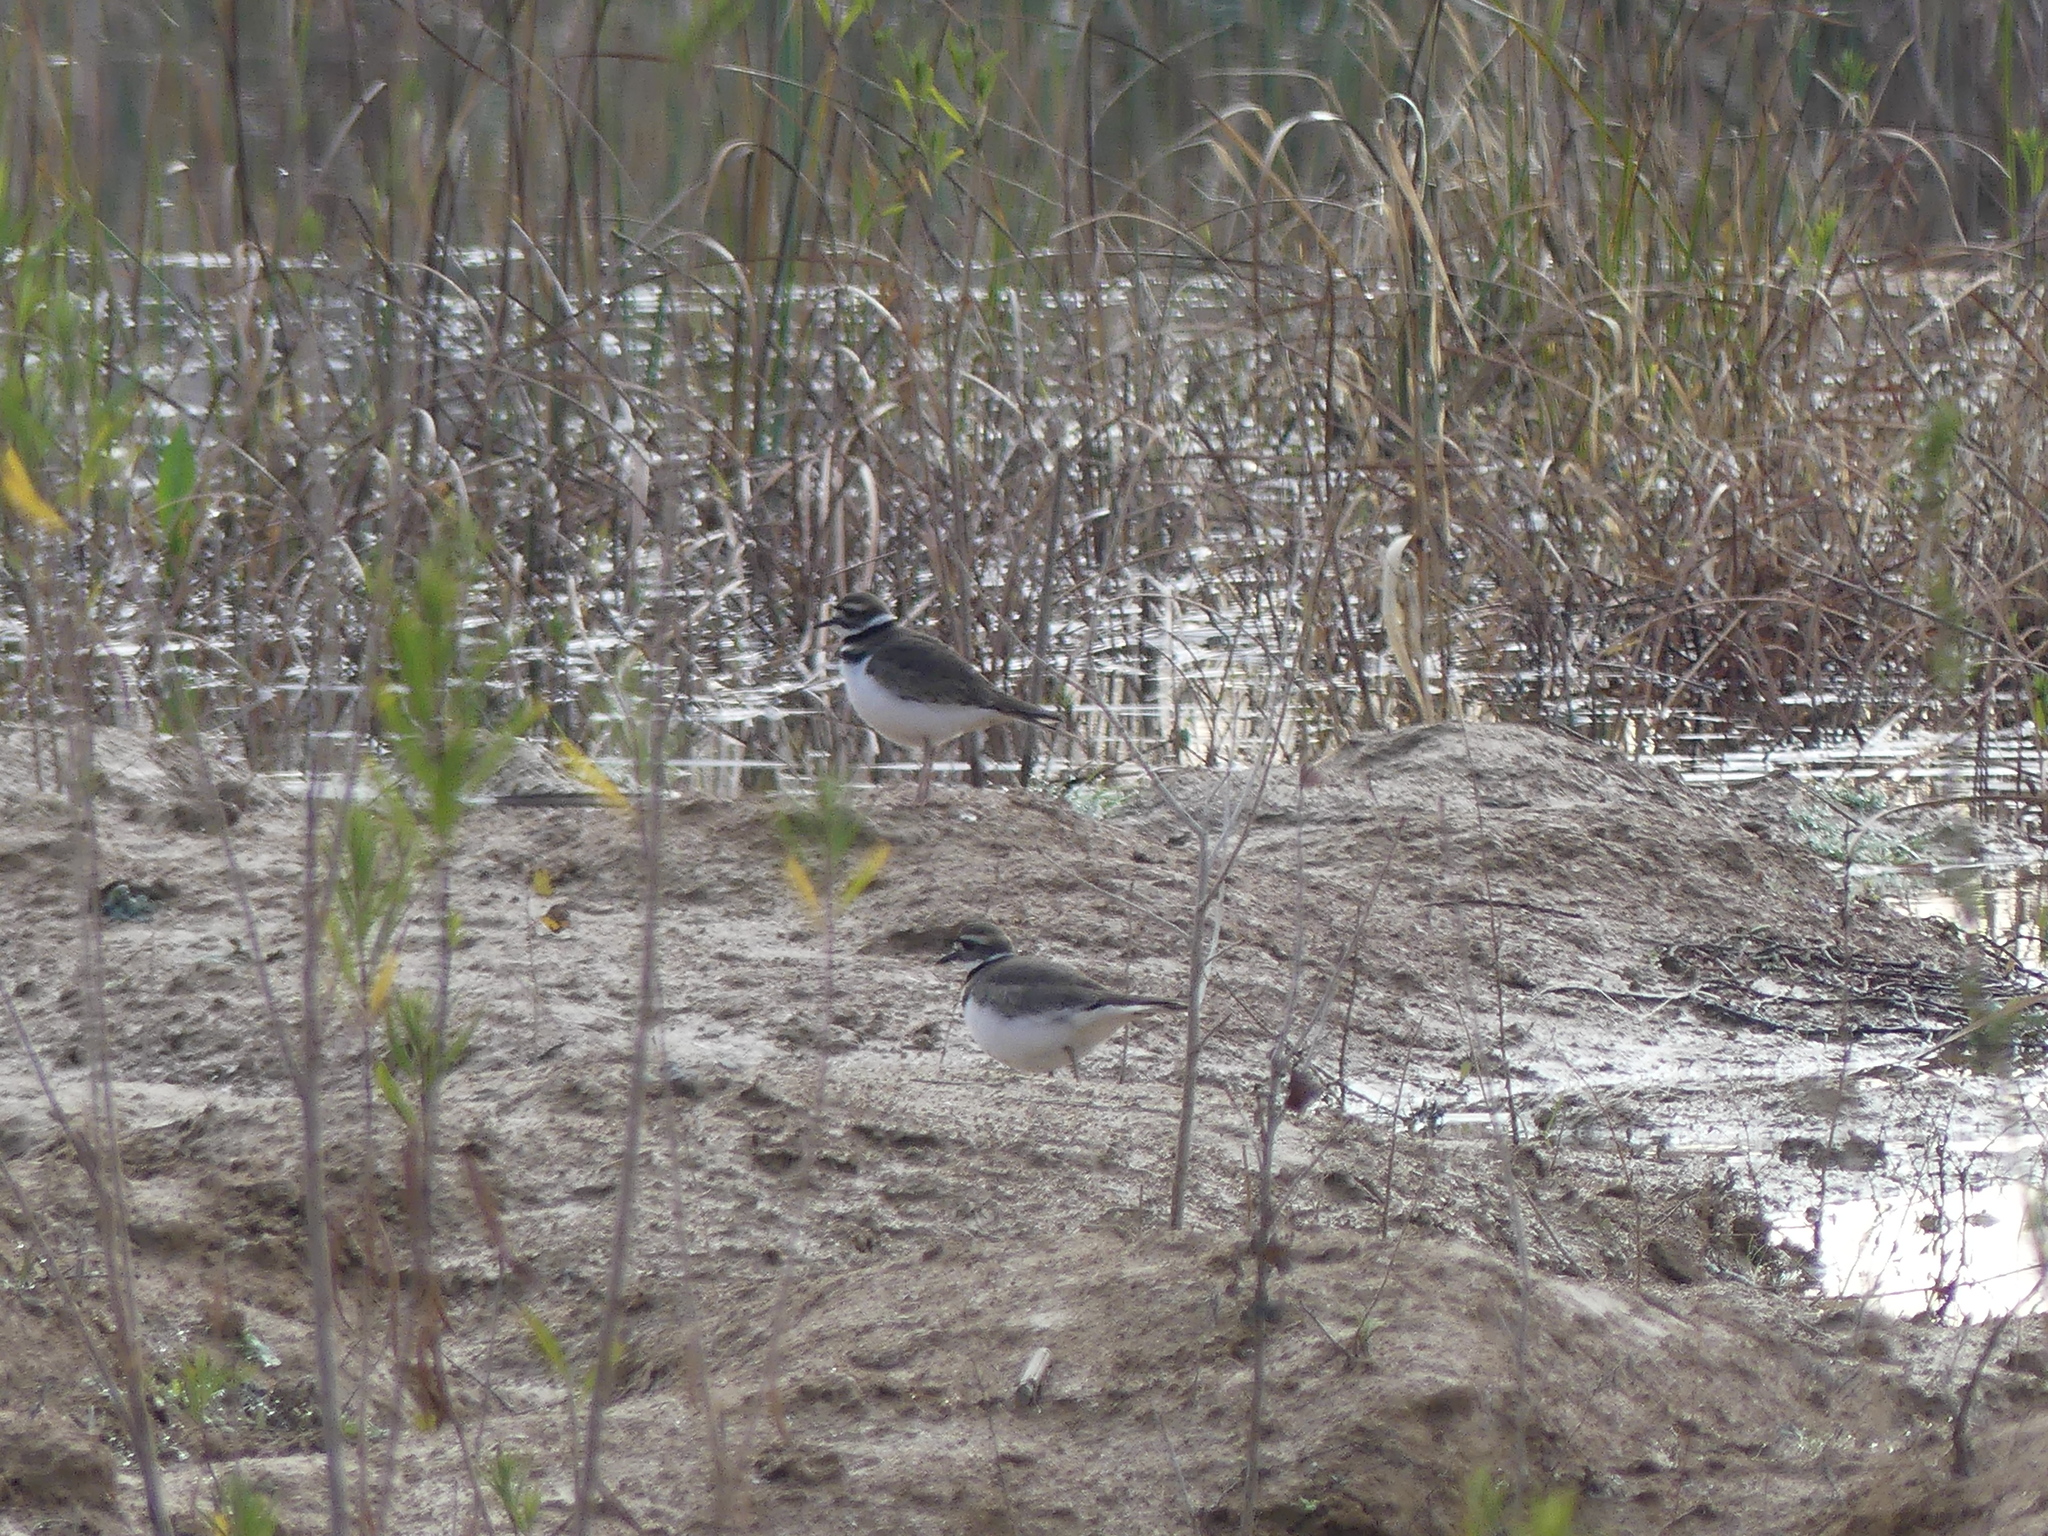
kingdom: Animalia
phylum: Chordata
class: Aves
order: Charadriiformes
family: Charadriidae
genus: Charadrius
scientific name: Charadrius vociferus
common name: Killdeer
